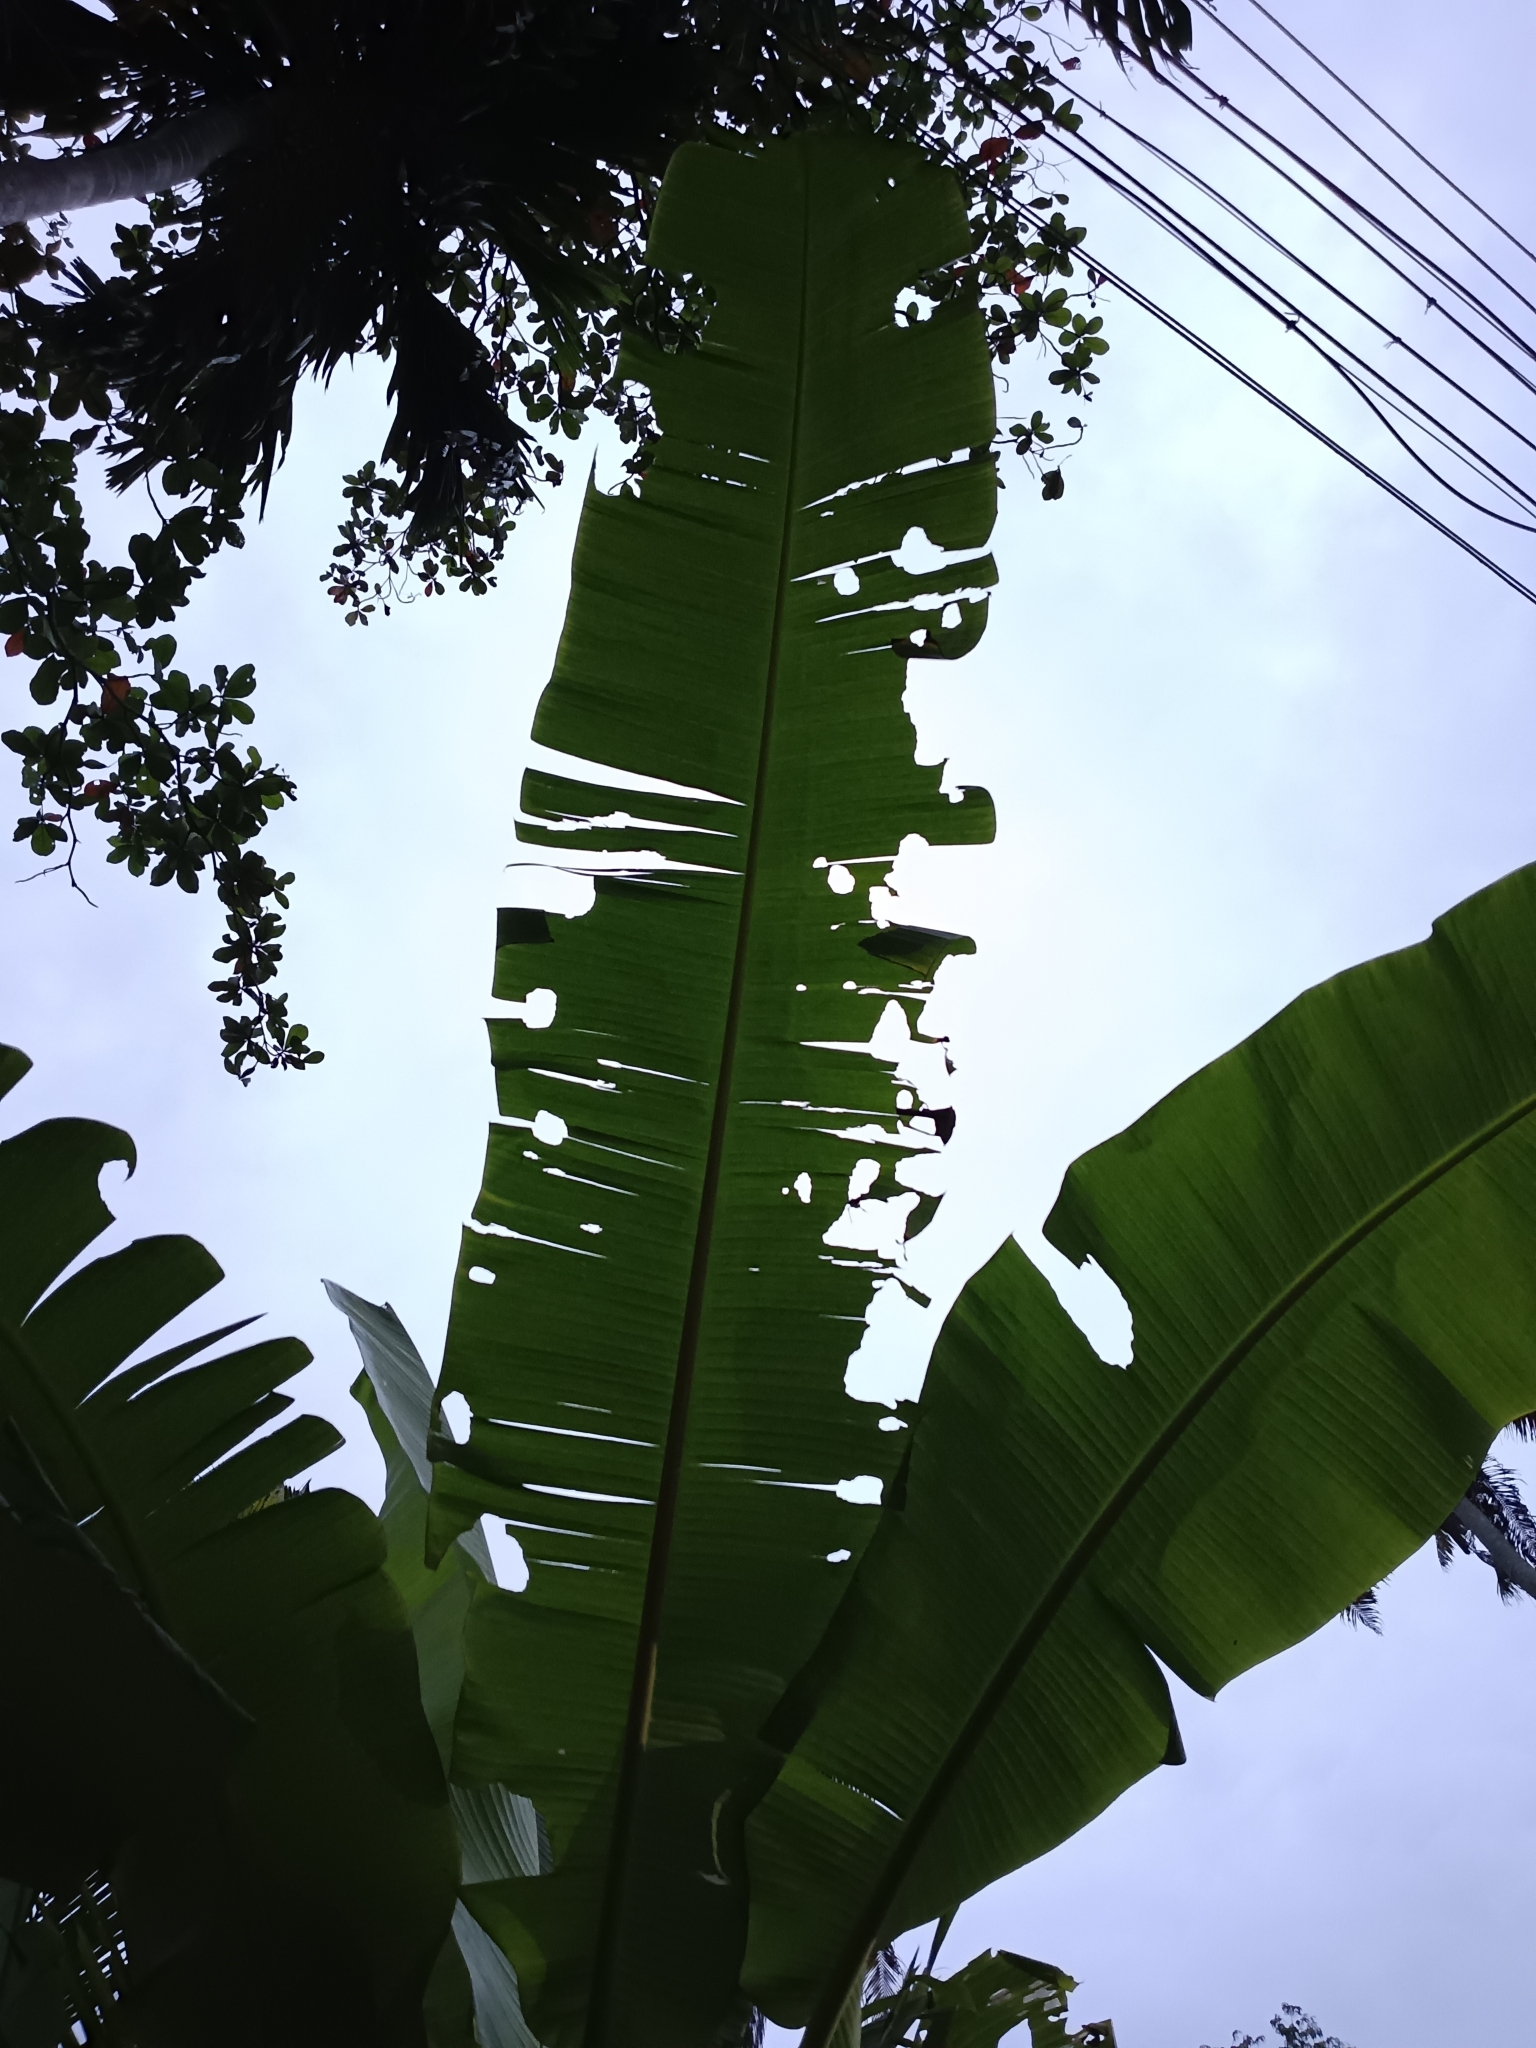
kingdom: Animalia
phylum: Arthropoda
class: Insecta
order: Lepidoptera
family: Hesperiidae
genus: Erionota
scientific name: Erionota torus
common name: Rounded palm-redeye
